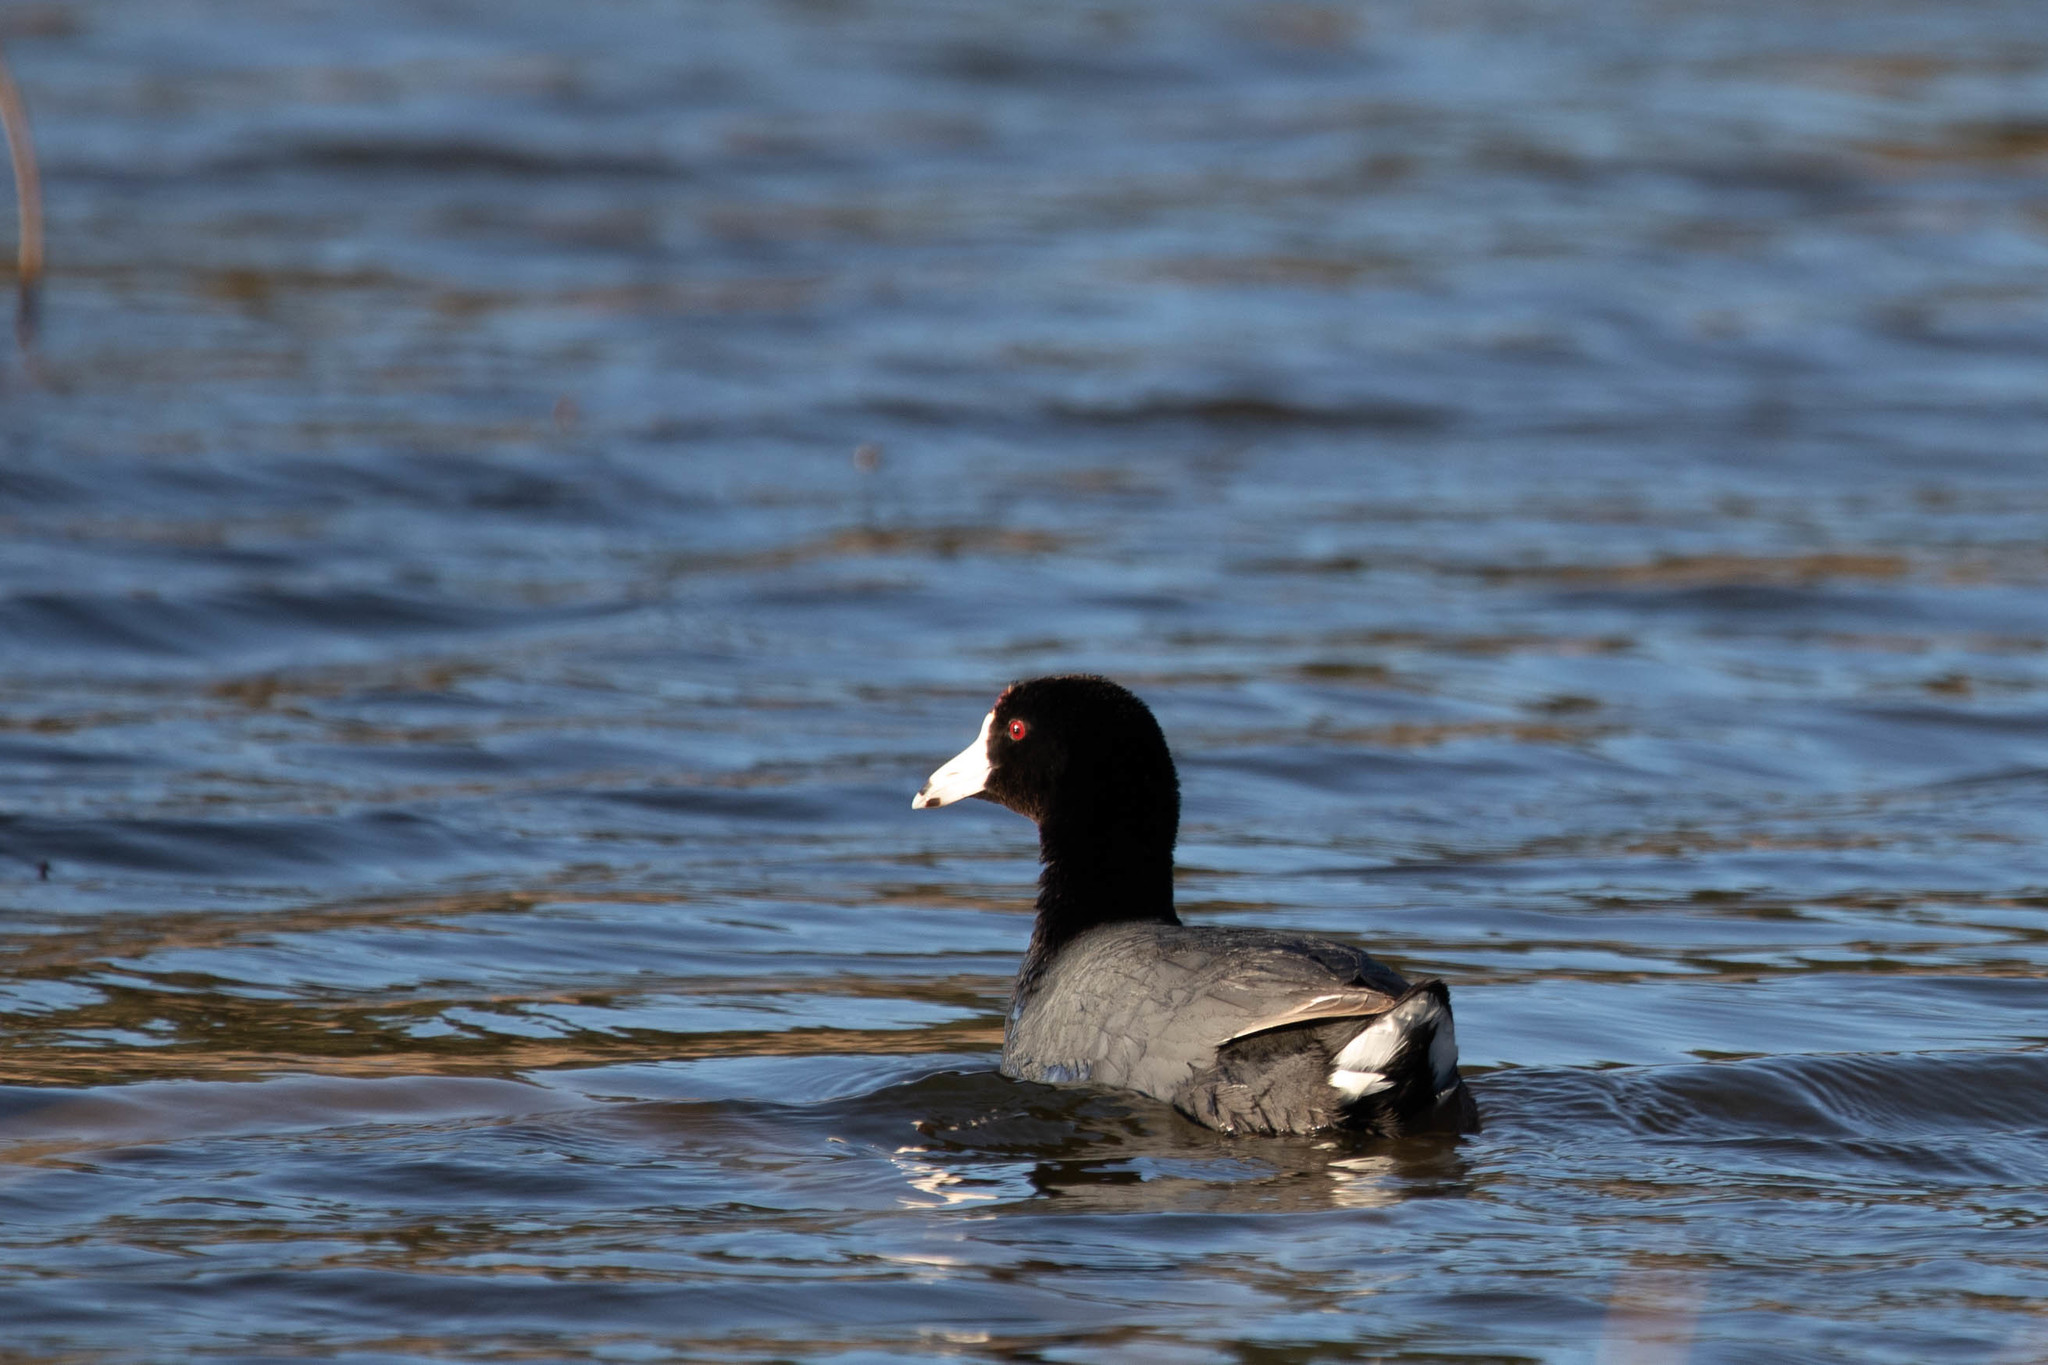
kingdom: Animalia
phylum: Chordata
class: Aves
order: Gruiformes
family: Rallidae
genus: Fulica
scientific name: Fulica americana
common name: American coot
